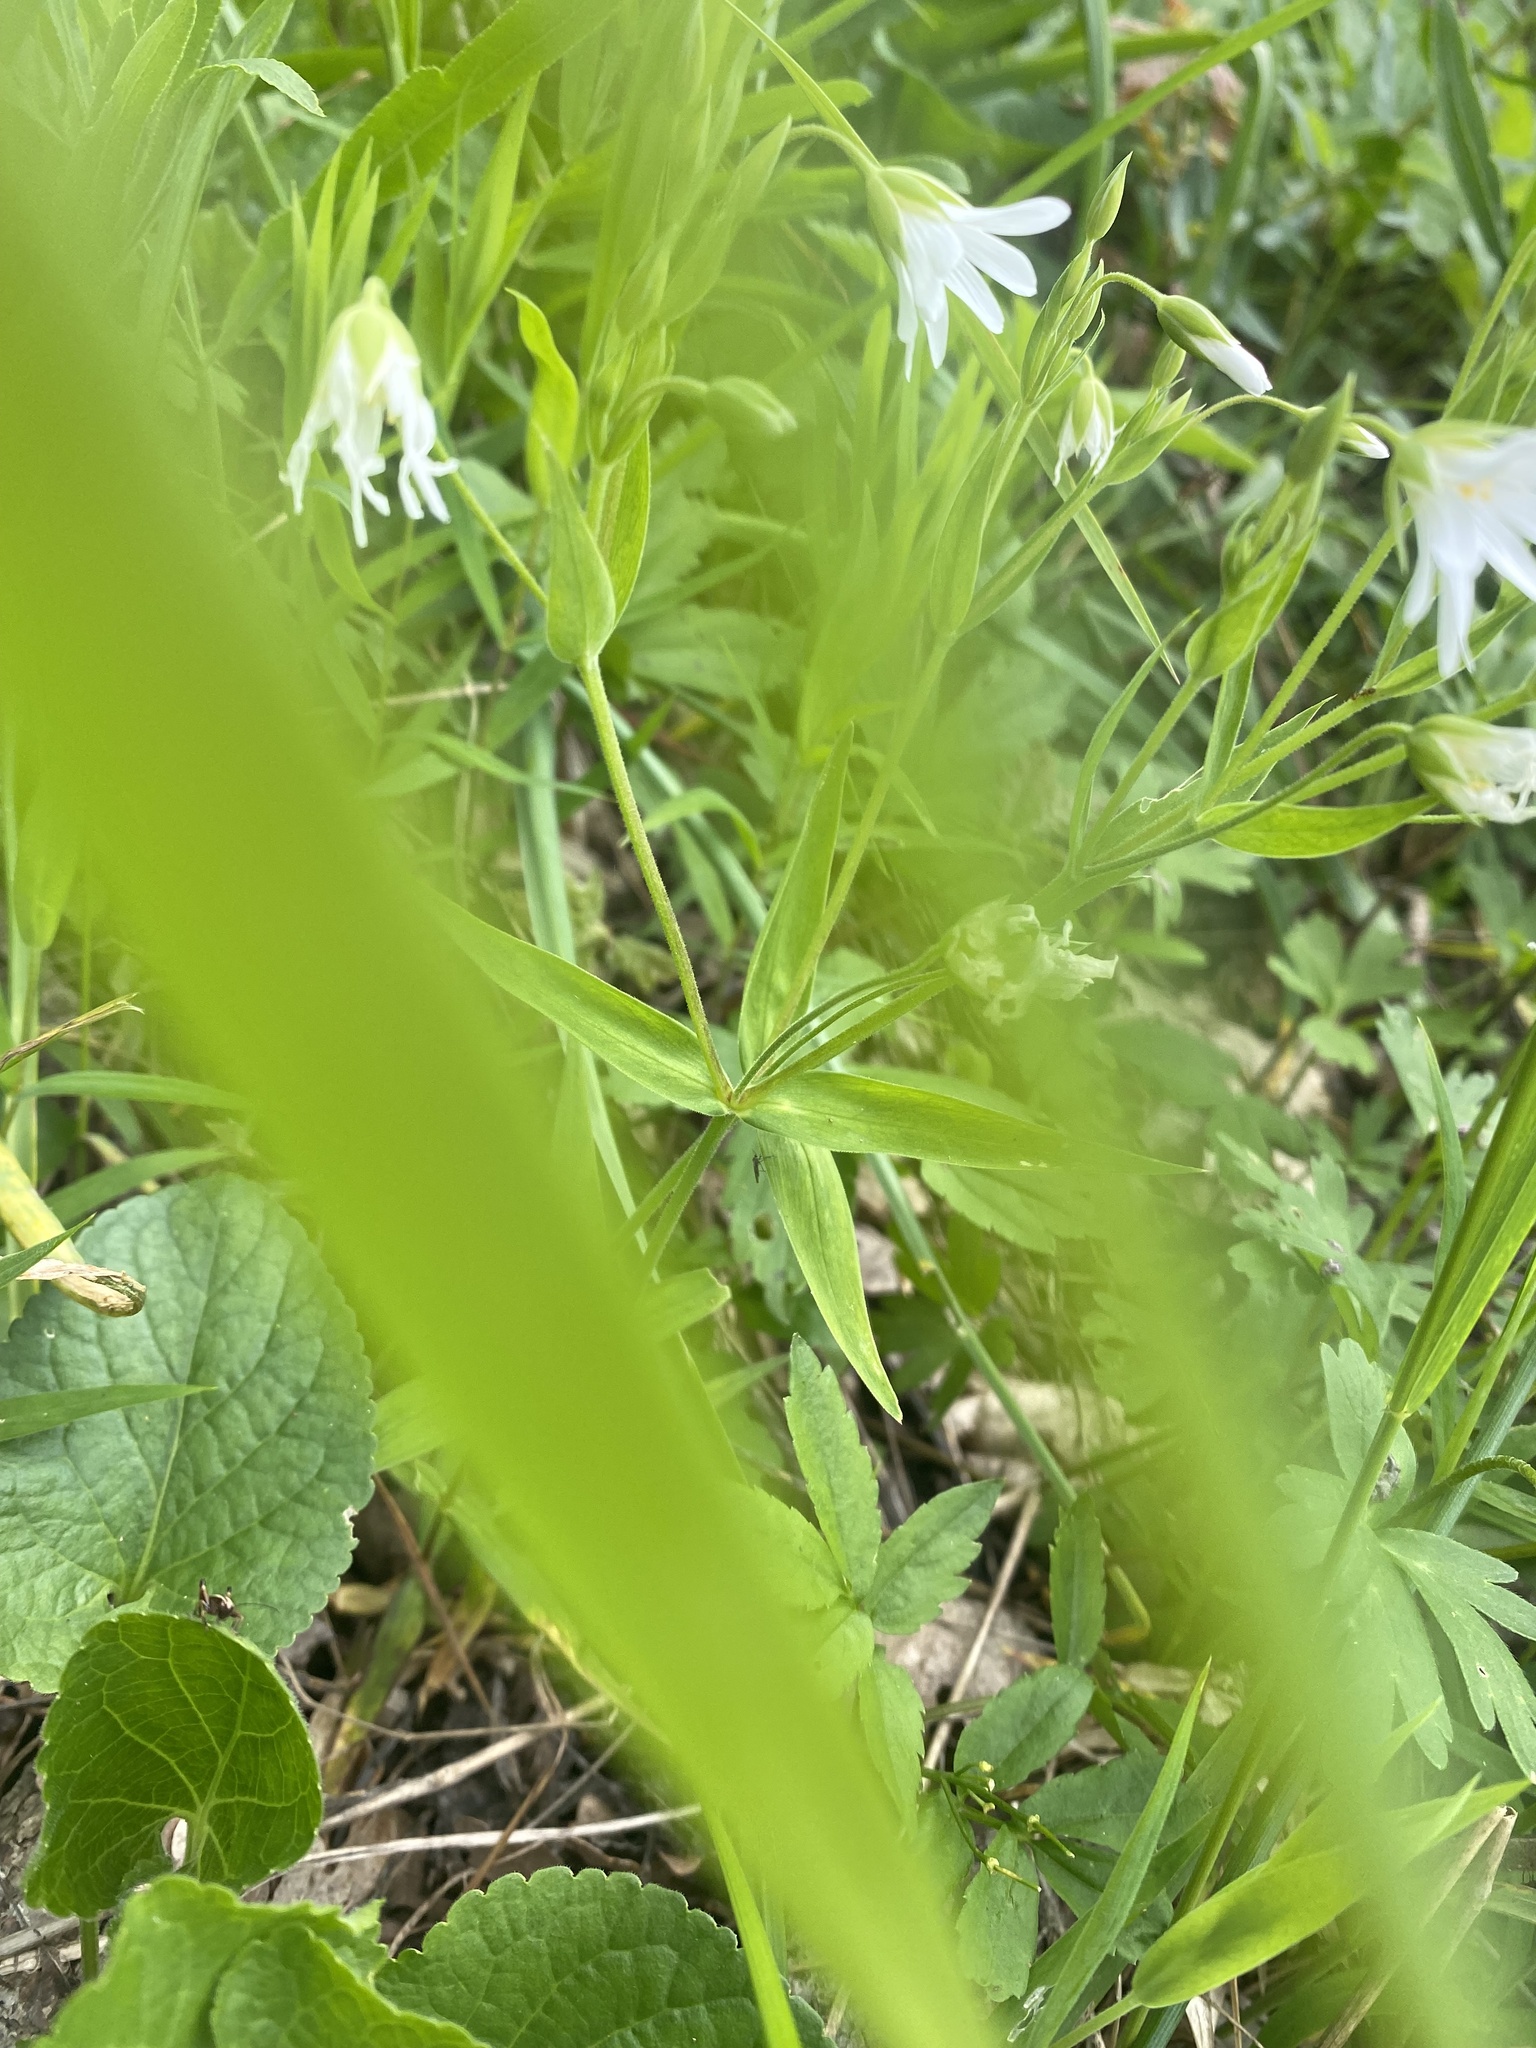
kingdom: Plantae
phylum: Tracheophyta
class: Magnoliopsida
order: Caryophyllales
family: Caryophyllaceae
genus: Rabelera
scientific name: Rabelera holostea
